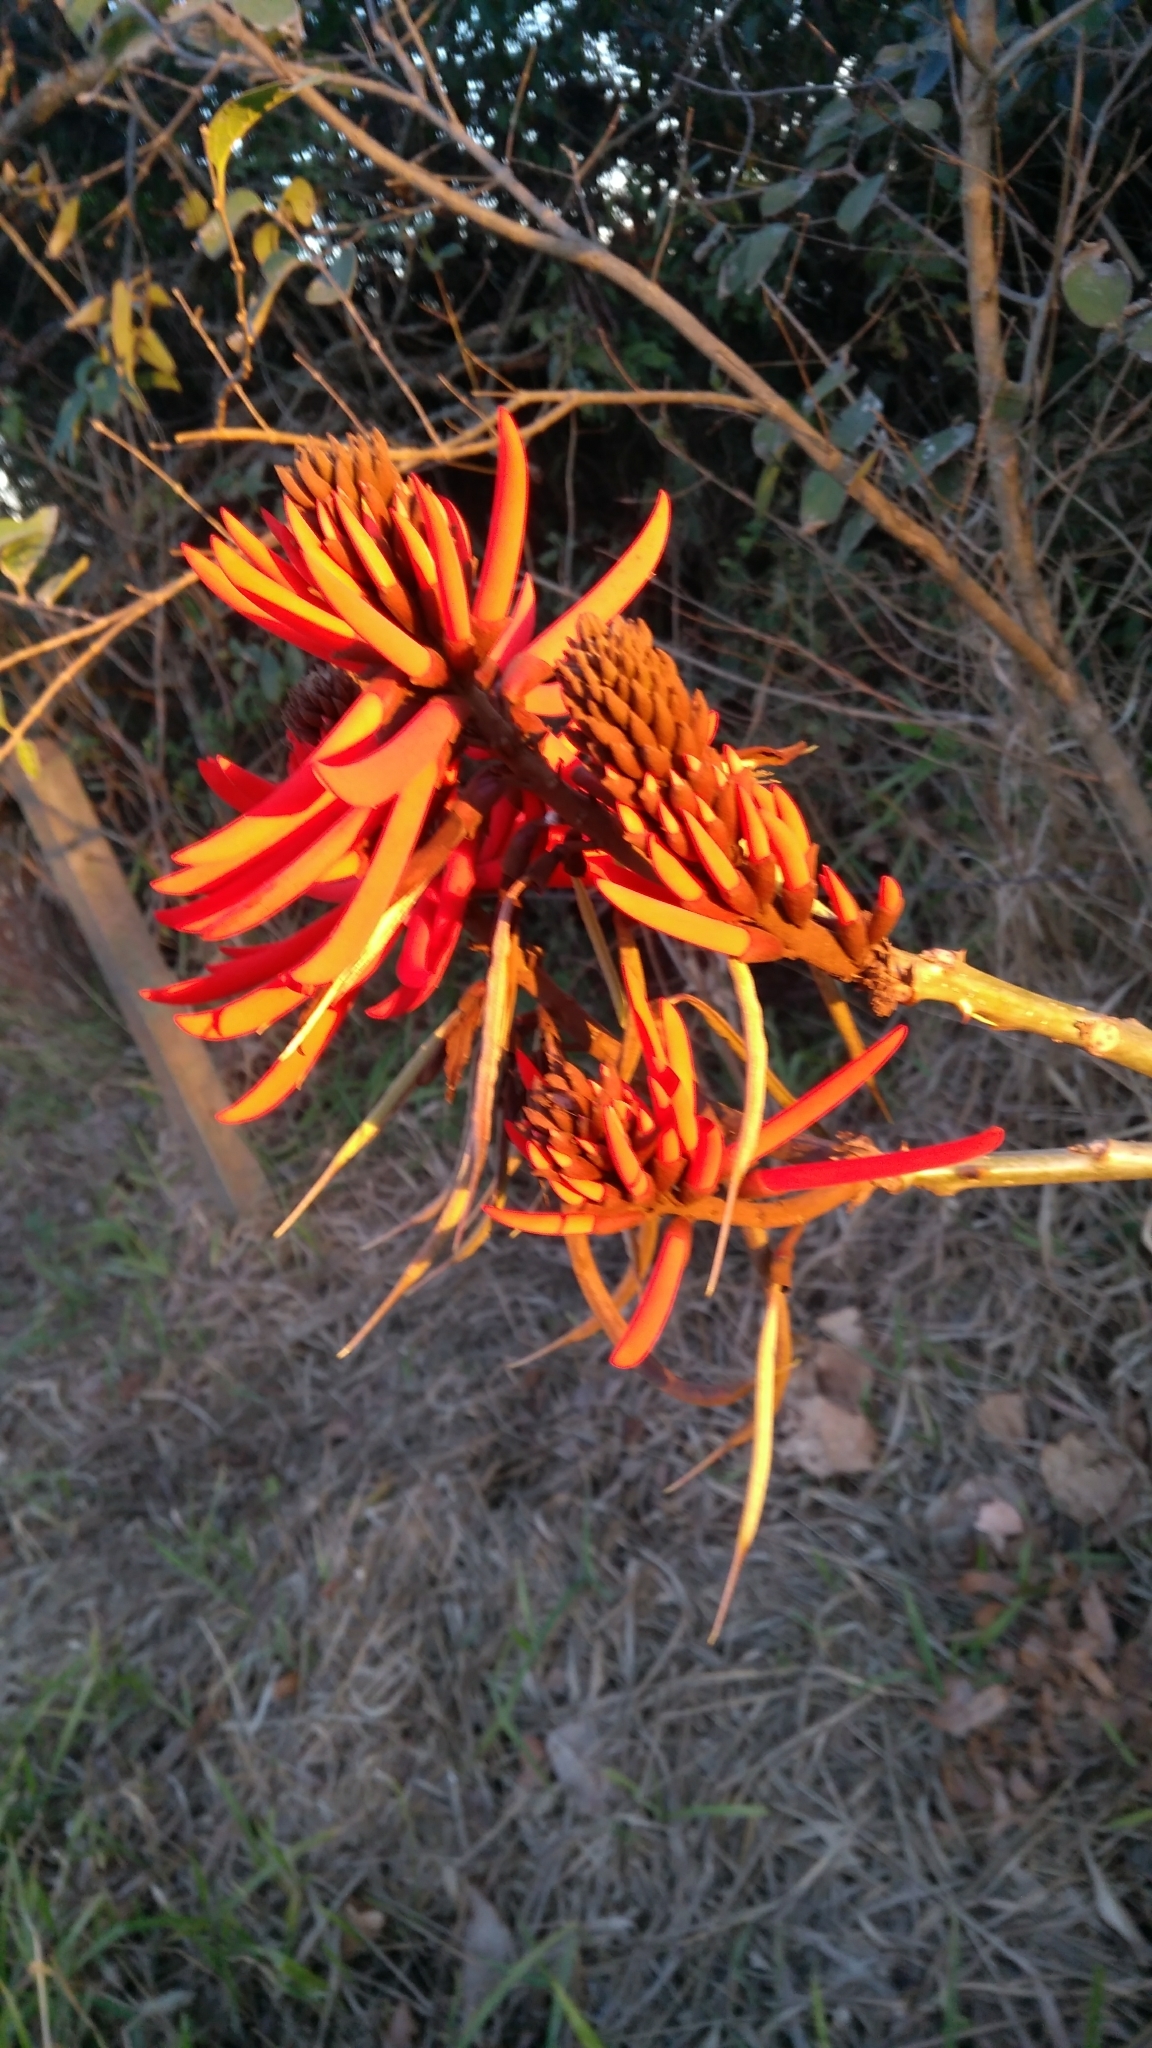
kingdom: Plantae
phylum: Tracheophyta
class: Magnoliopsida
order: Fabales
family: Fabaceae
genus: Erythrina
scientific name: Erythrina speciosa
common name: Coral tree
